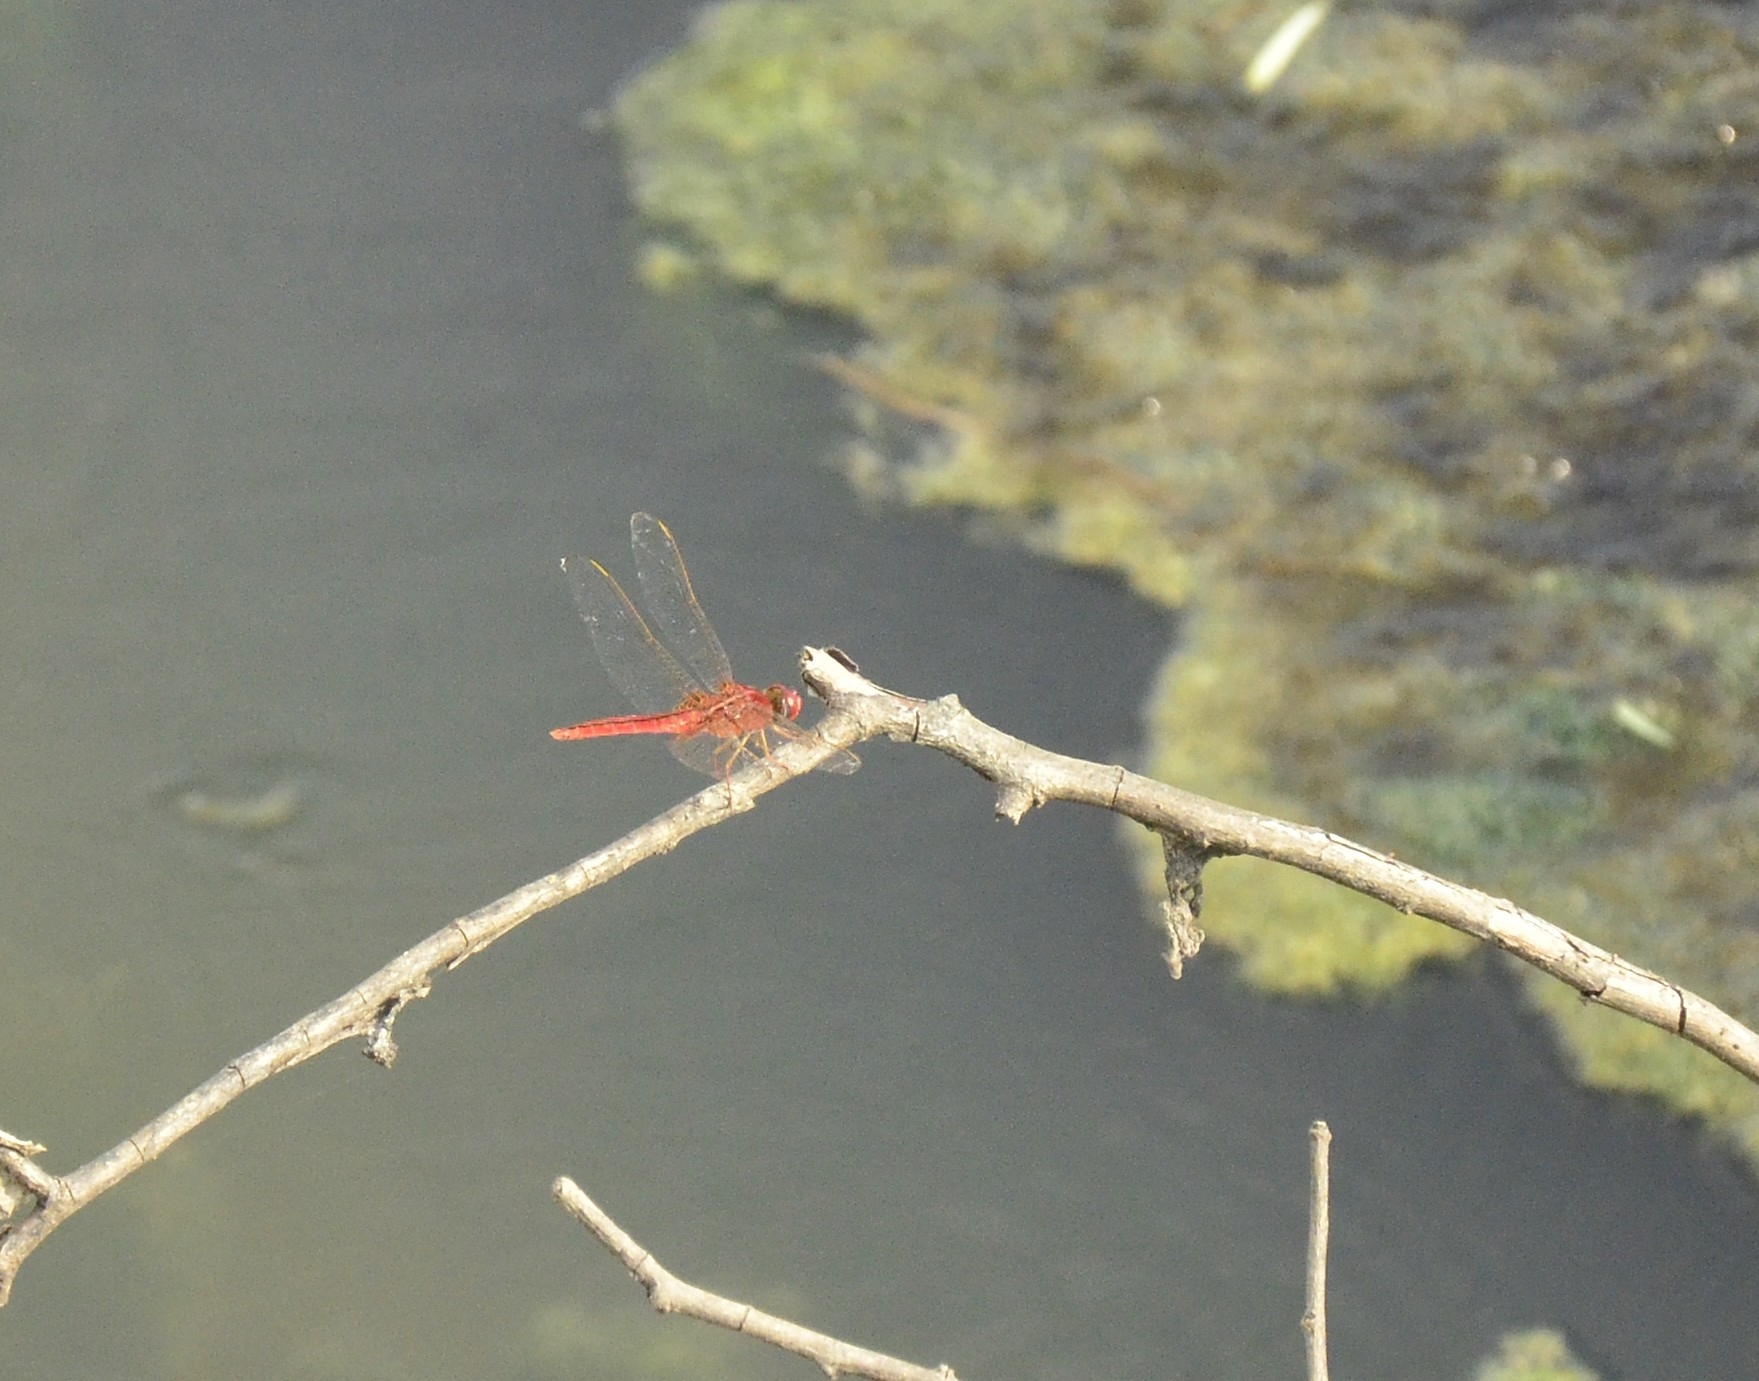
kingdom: Animalia
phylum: Arthropoda
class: Insecta
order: Odonata
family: Libellulidae
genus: Urothemis
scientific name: Urothemis signata
